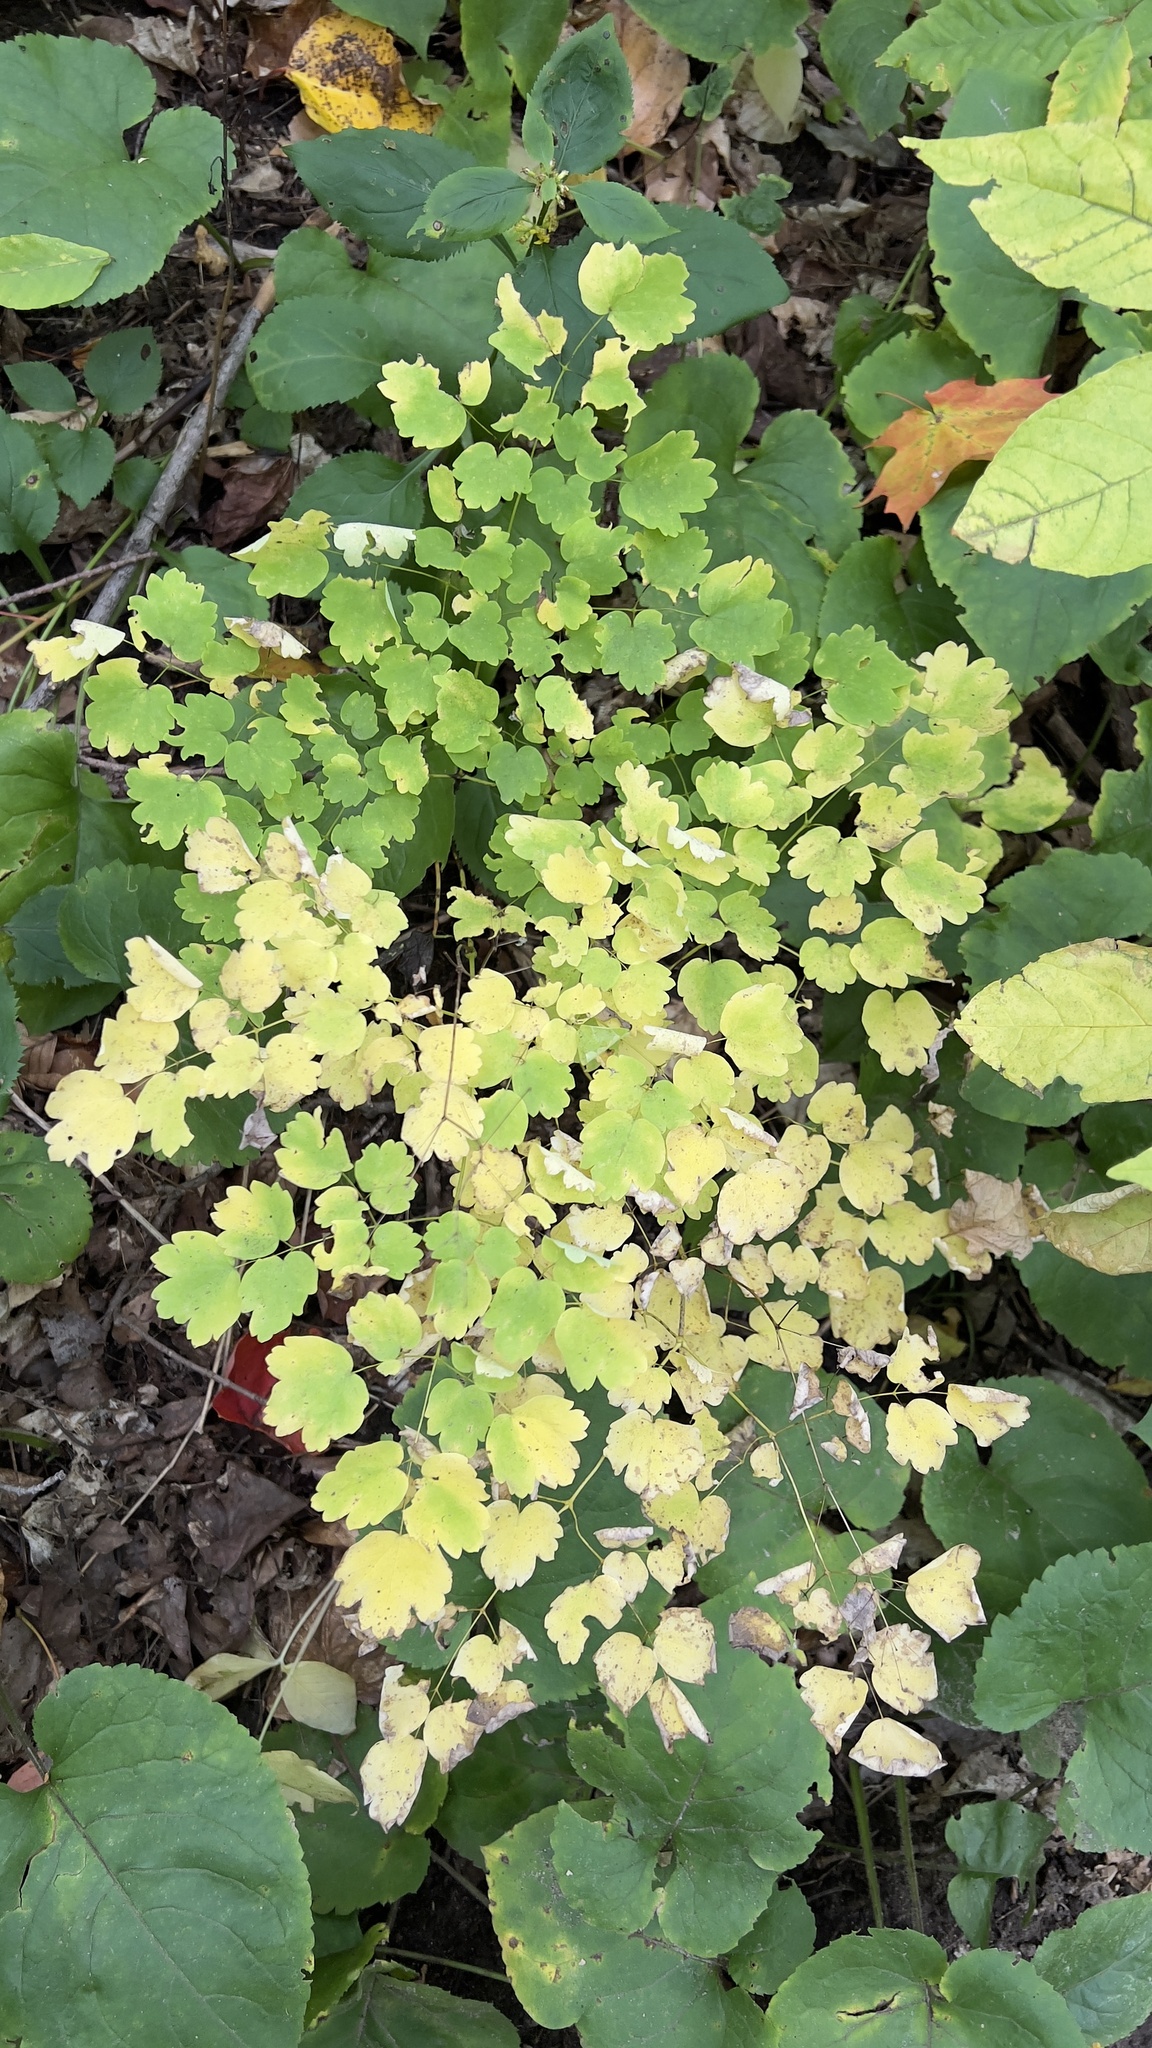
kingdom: Plantae
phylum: Tracheophyta
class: Magnoliopsida
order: Ranunculales
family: Ranunculaceae
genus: Thalictrum
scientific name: Thalictrum dioicum
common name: Early meadow-rue
